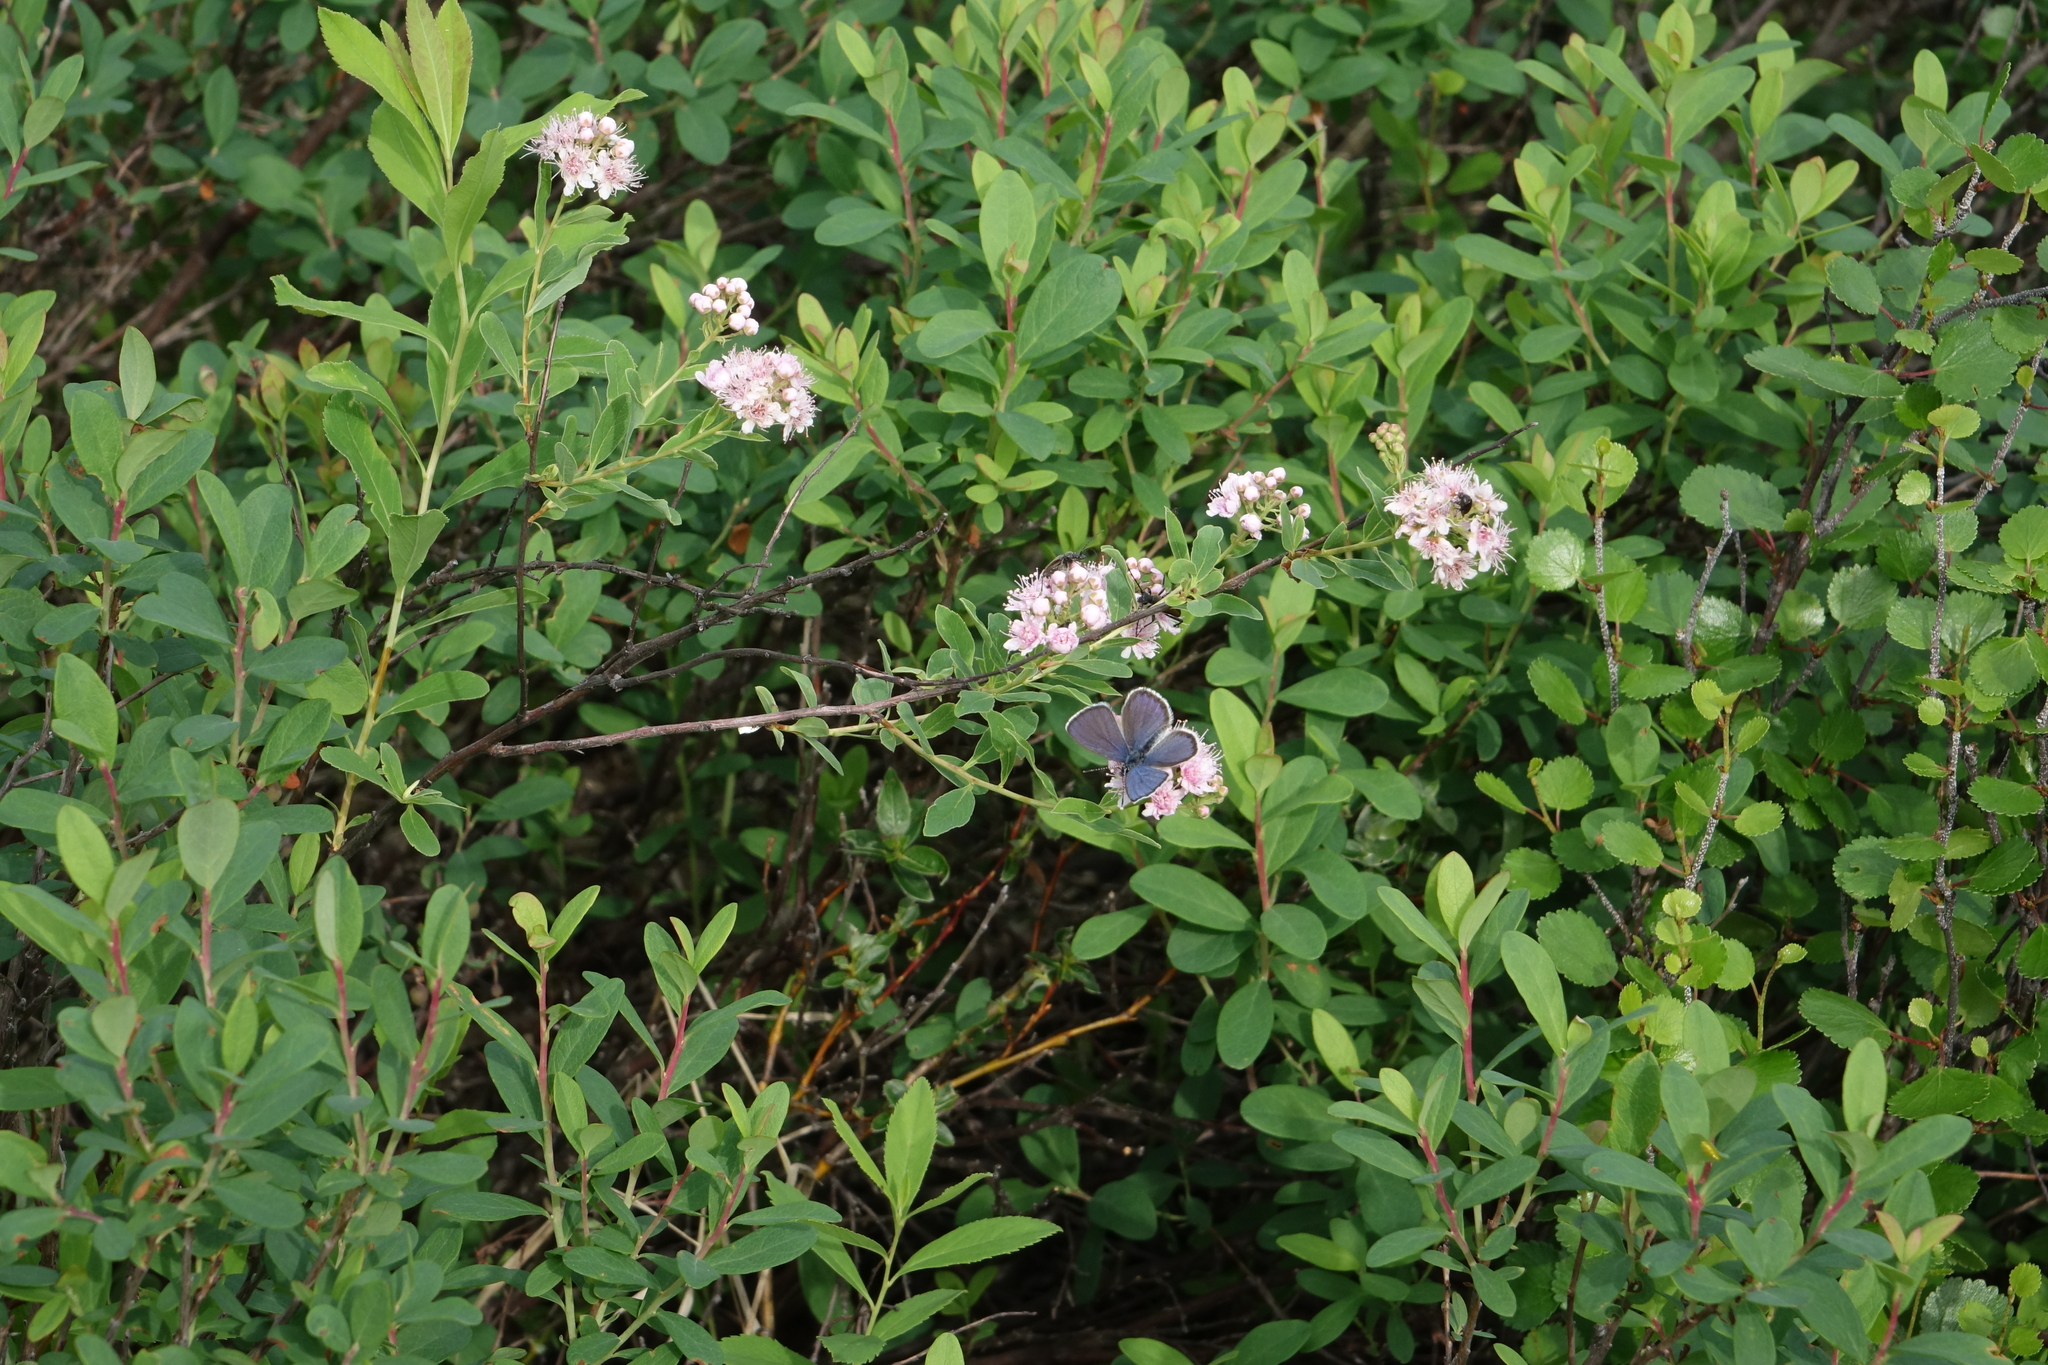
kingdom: Plantae
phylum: Tracheophyta
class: Magnoliopsida
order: Rosales
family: Rosaceae
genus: Spiraea
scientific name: Spiraea salicifolia
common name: Bridewort
